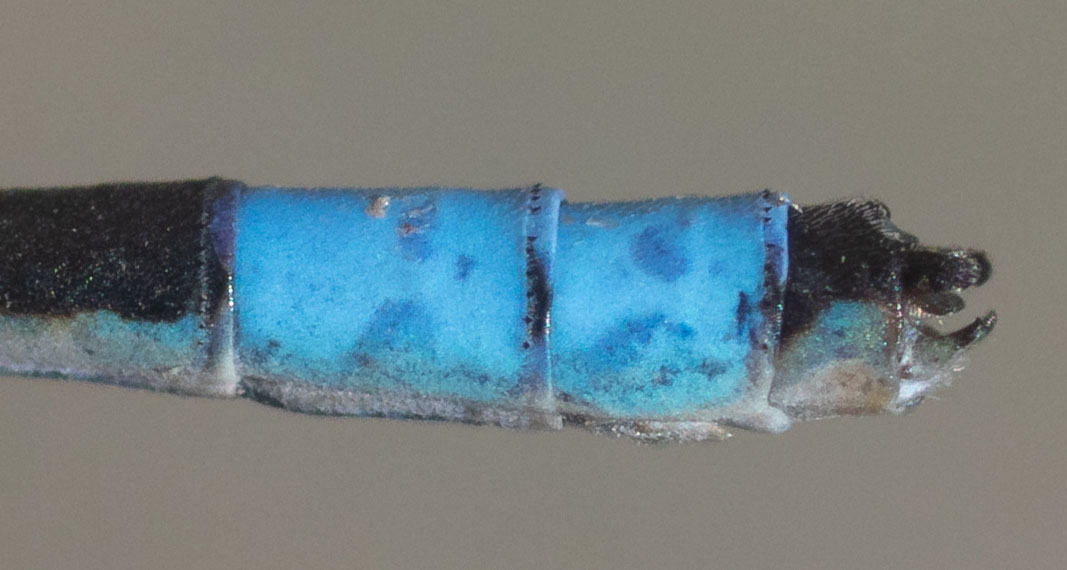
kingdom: Animalia
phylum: Arthropoda
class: Insecta
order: Odonata
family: Coenagrionidae
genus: Enallagma
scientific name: Enallagma praevarum
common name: Arroyo bluet
